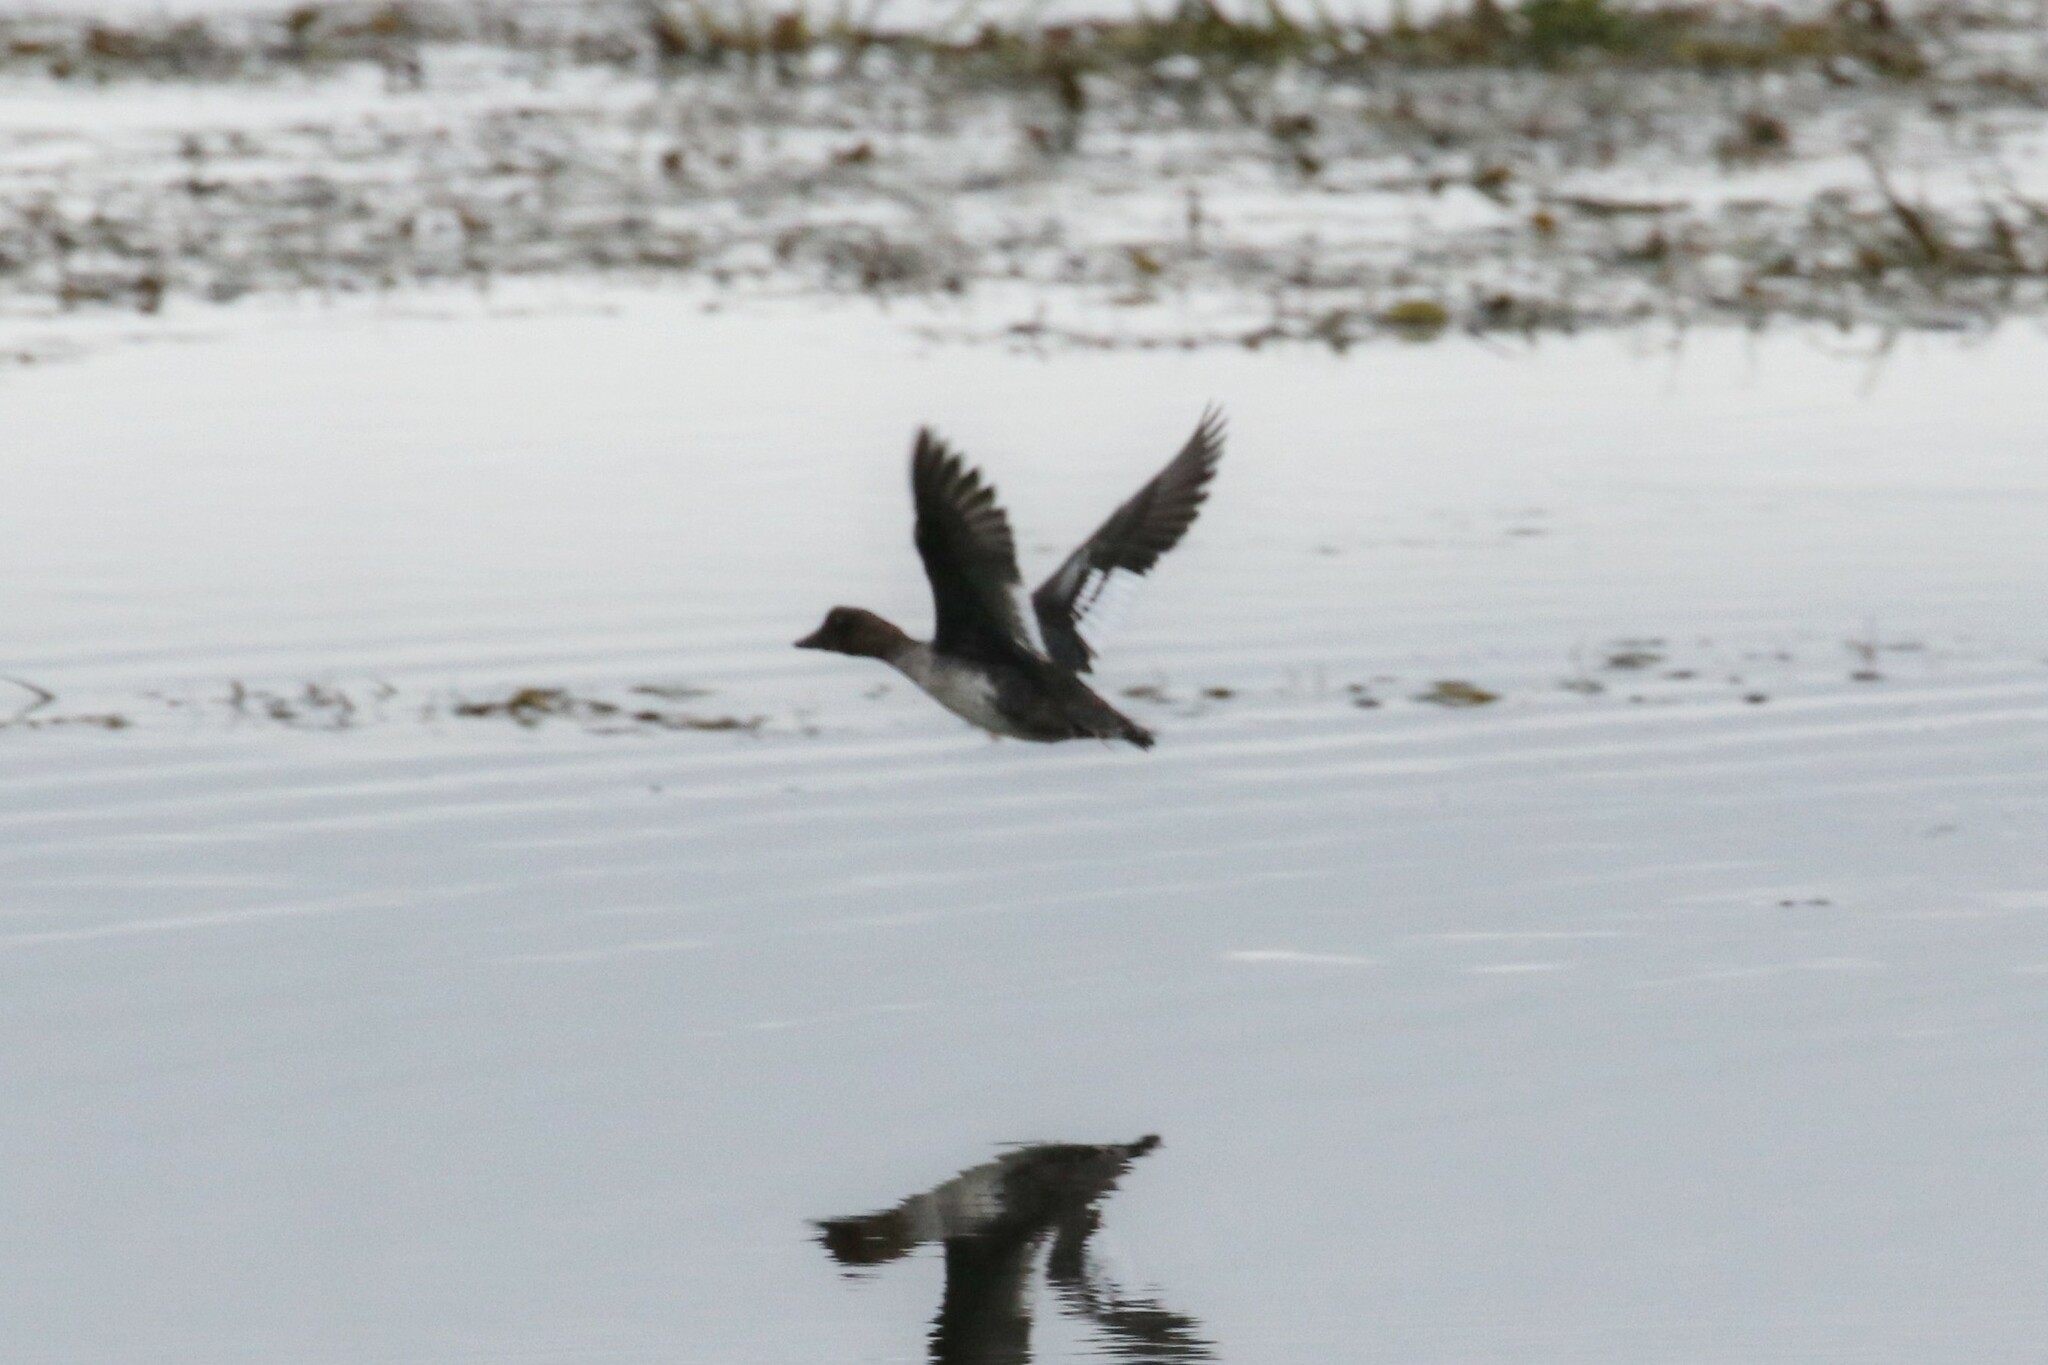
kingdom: Animalia
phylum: Chordata
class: Aves
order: Anseriformes
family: Anatidae
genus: Bucephala
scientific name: Bucephala clangula
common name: Common goldeneye
